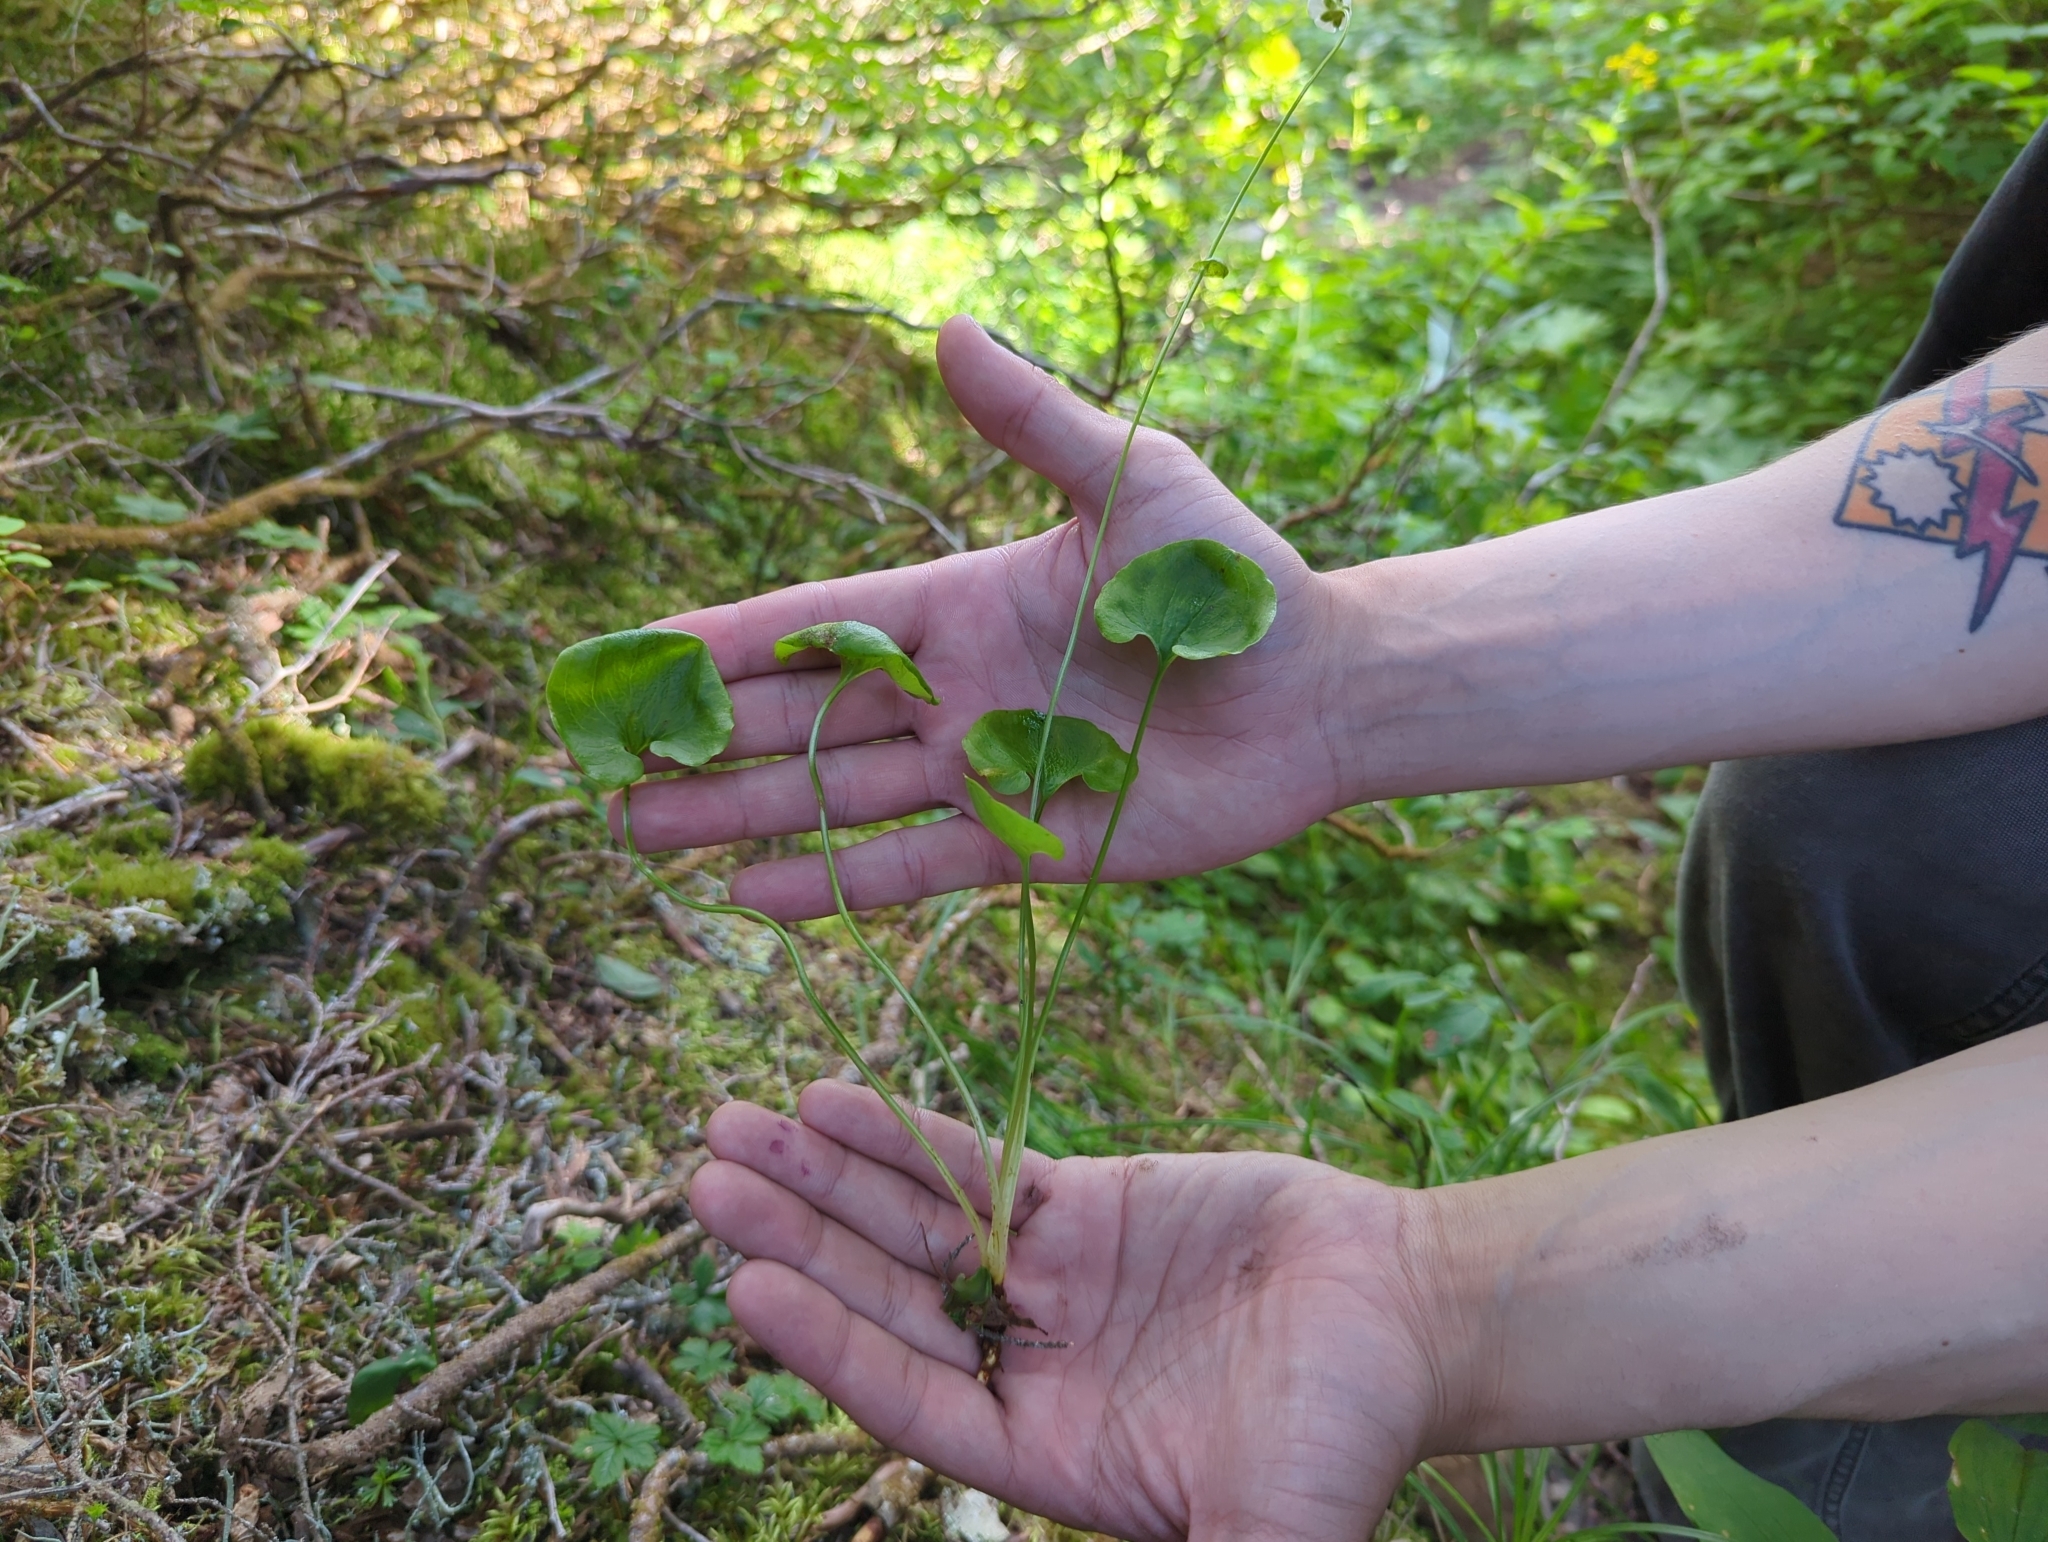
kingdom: Plantae
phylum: Tracheophyta
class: Magnoliopsida
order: Celastrales
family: Parnassiaceae
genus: Parnassia
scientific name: Parnassia fimbriata
